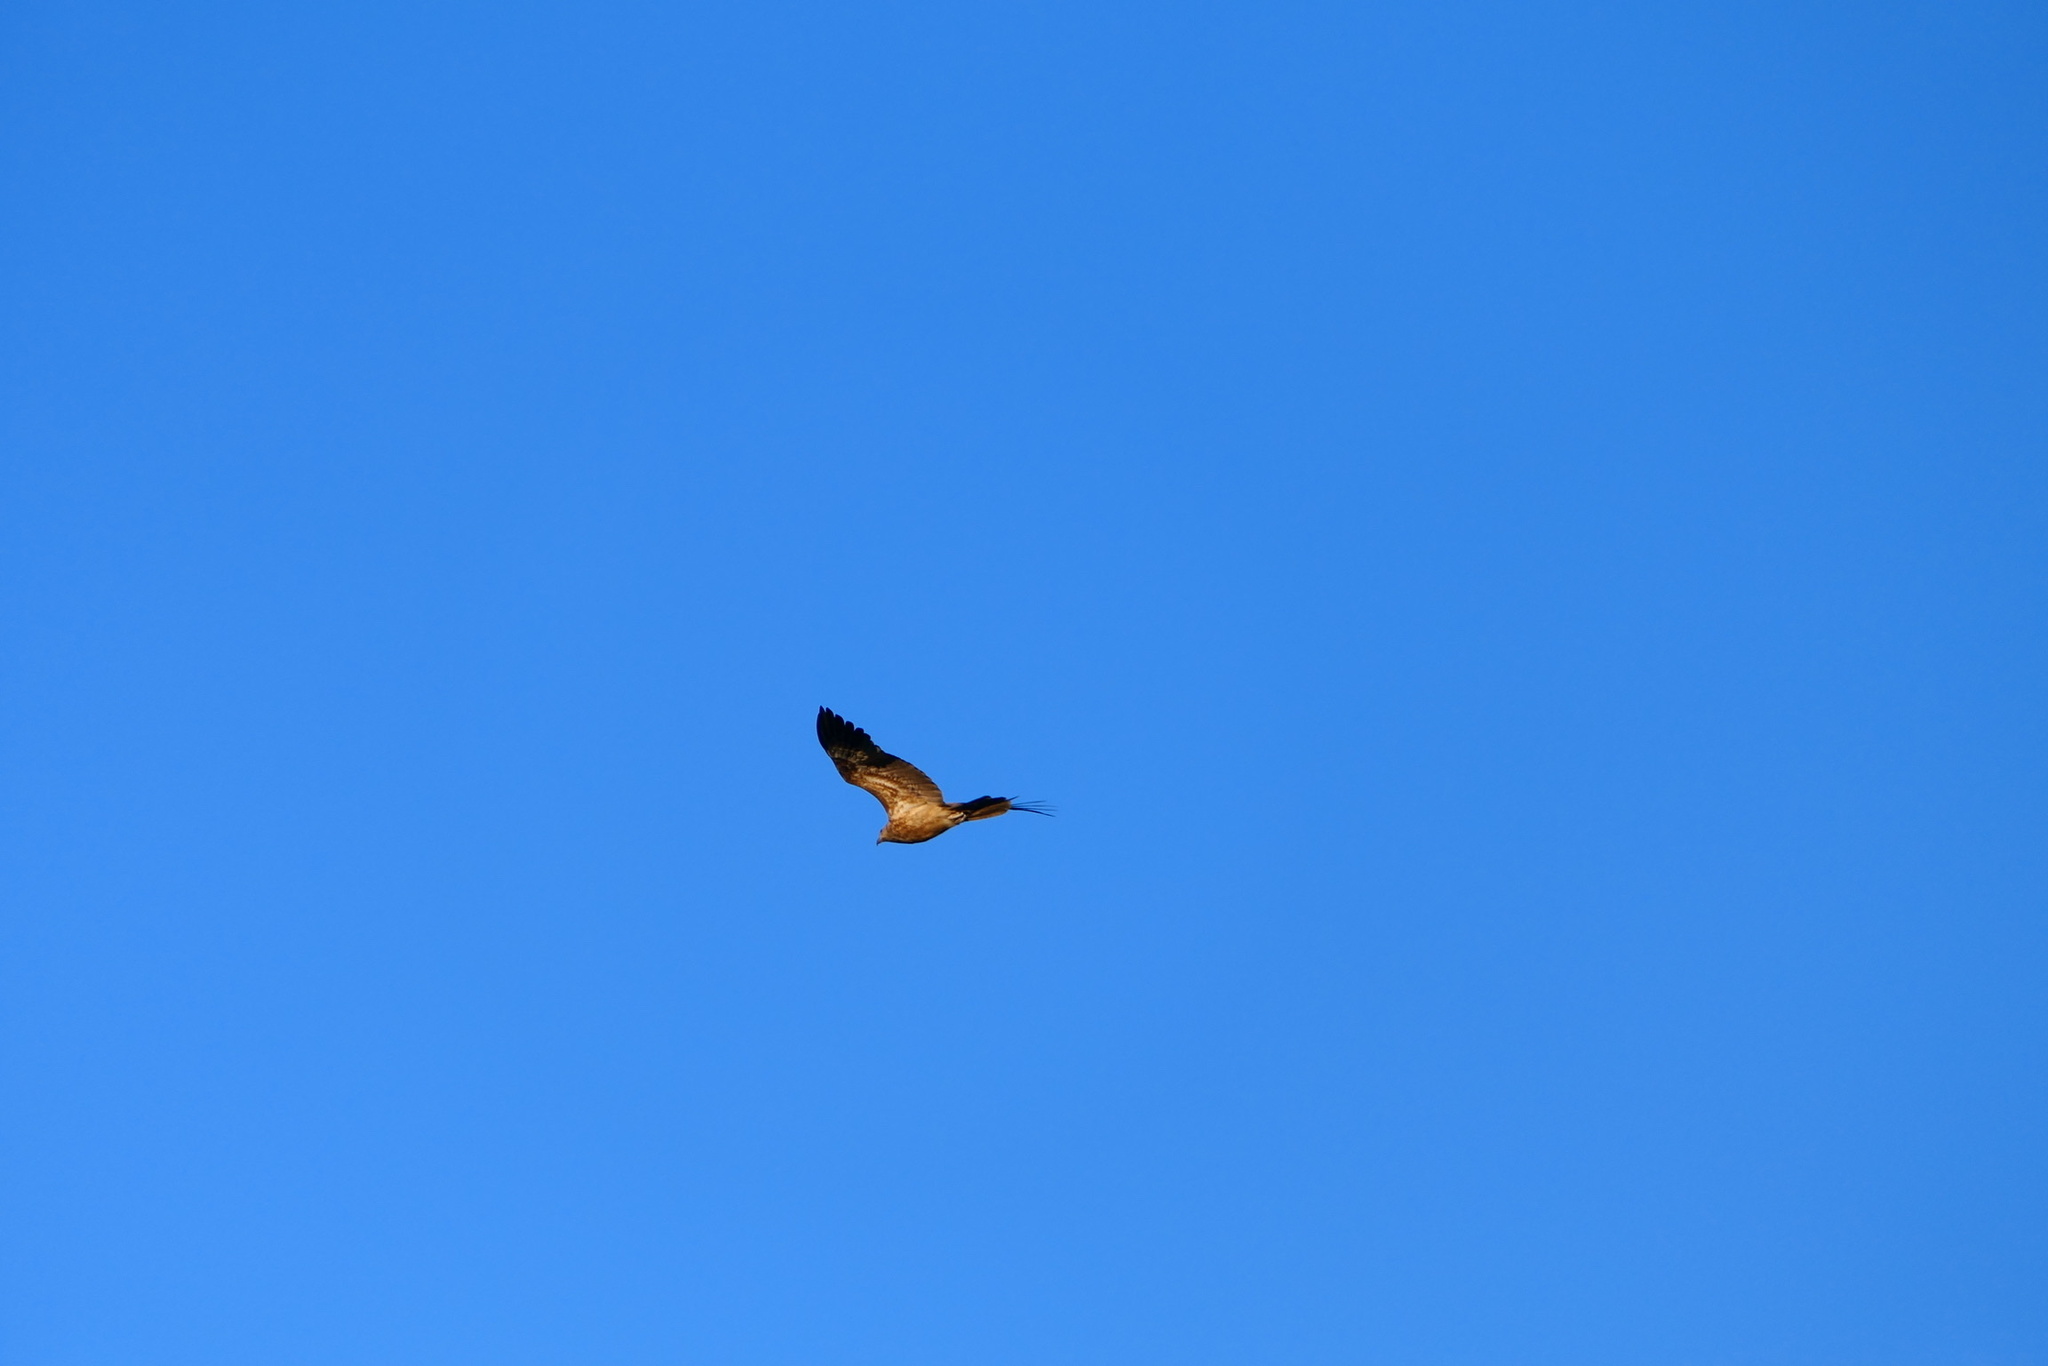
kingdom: Animalia
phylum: Chordata
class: Aves
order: Accipitriformes
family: Accipitridae
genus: Haliastur
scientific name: Haliastur sphenurus
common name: Whistling kite
